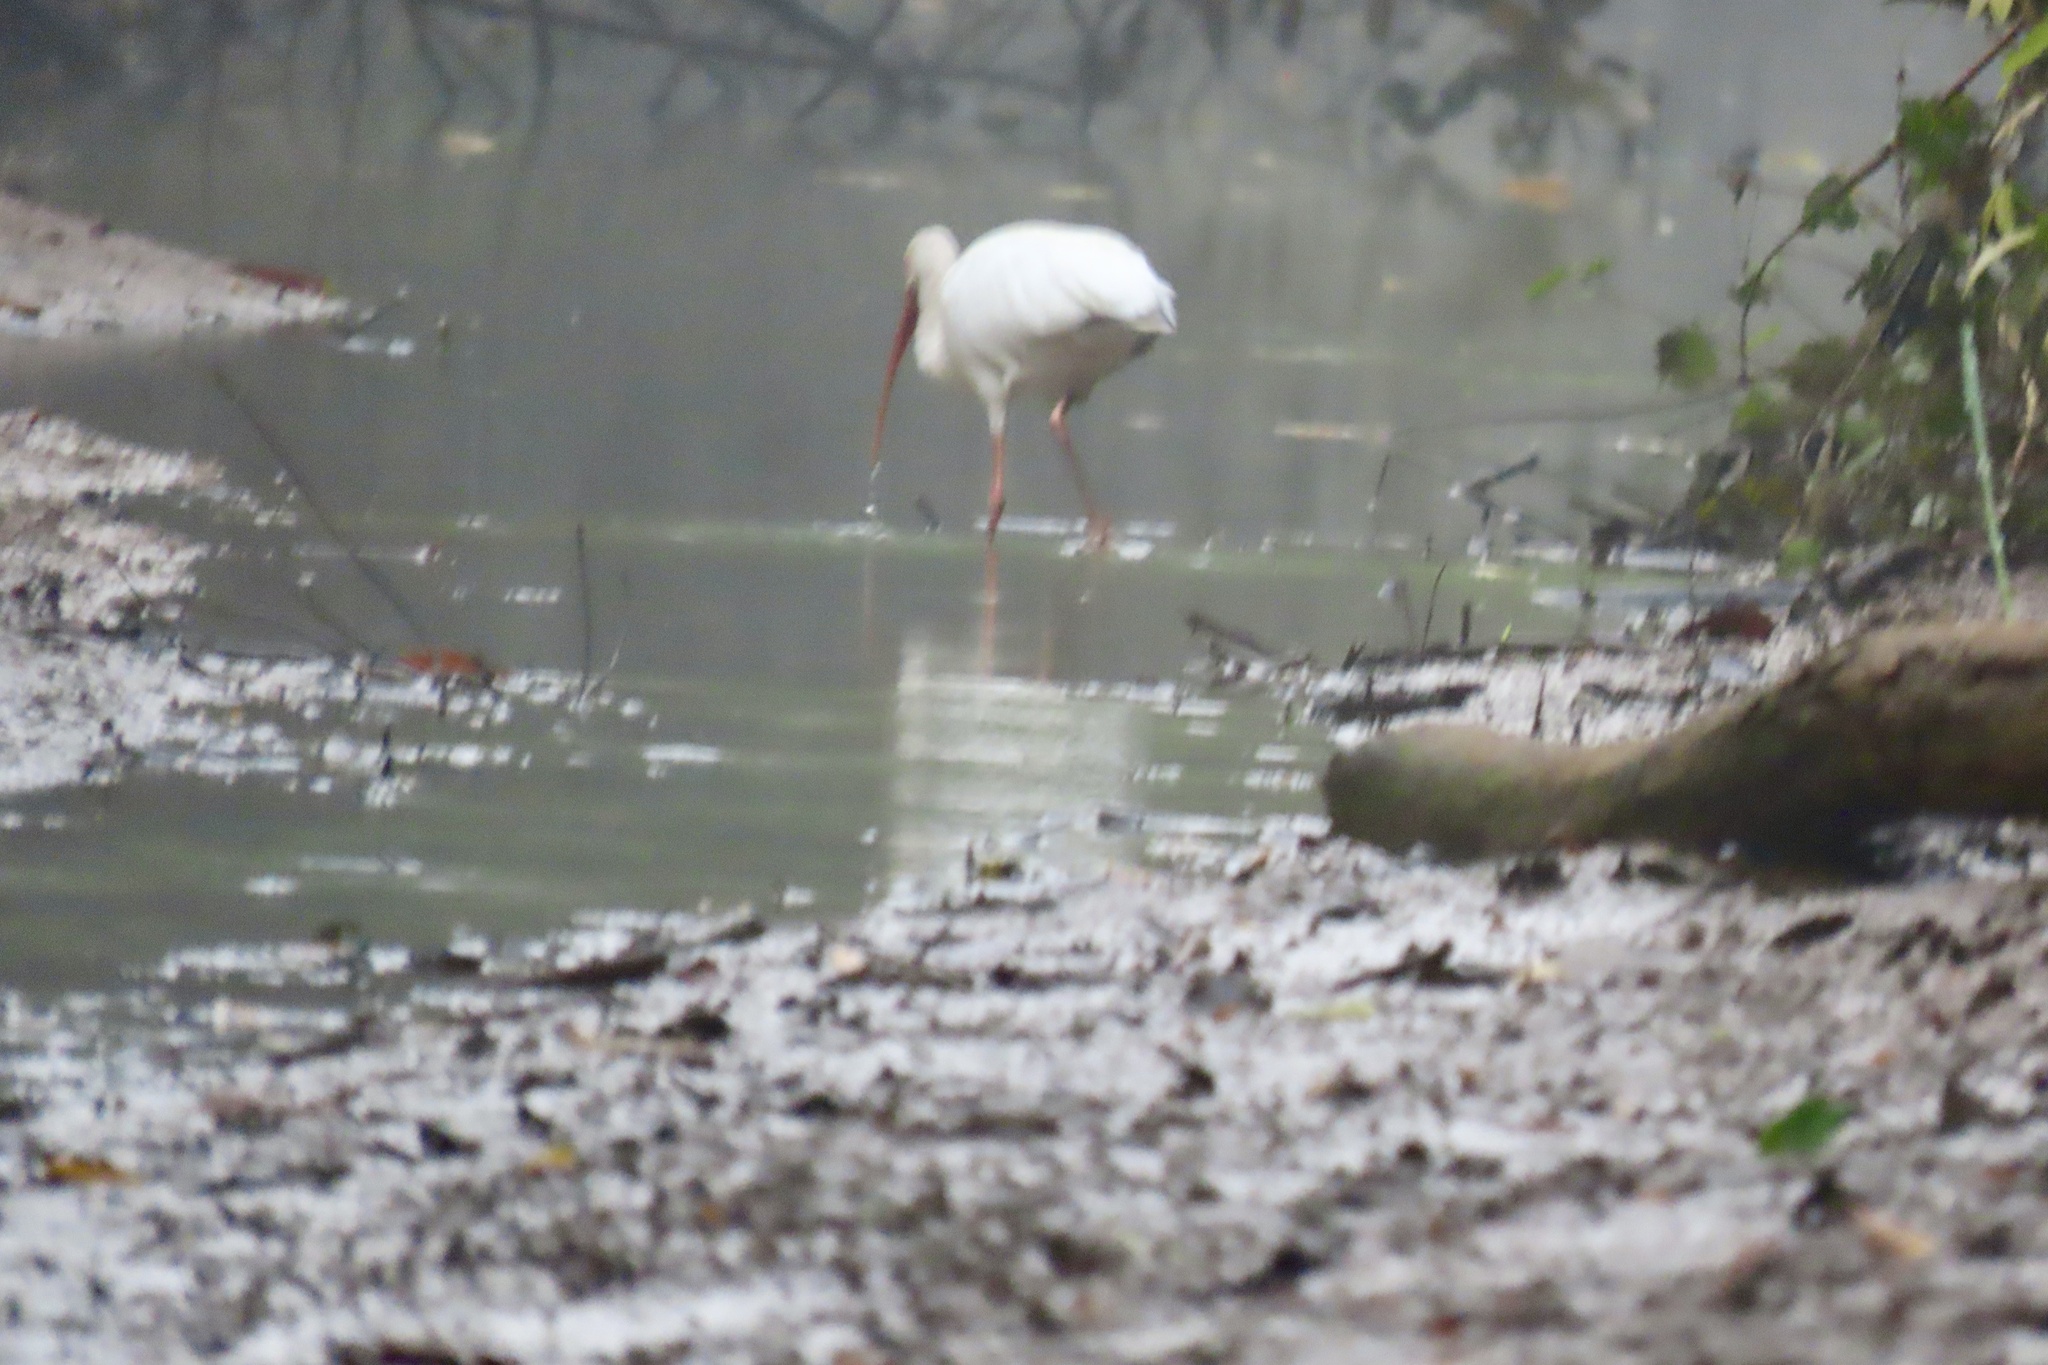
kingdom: Animalia
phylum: Chordata
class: Aves
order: Pelecaniformes
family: Threskiornithidae
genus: Eudocimus
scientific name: Eudocimus albus
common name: White ibis
